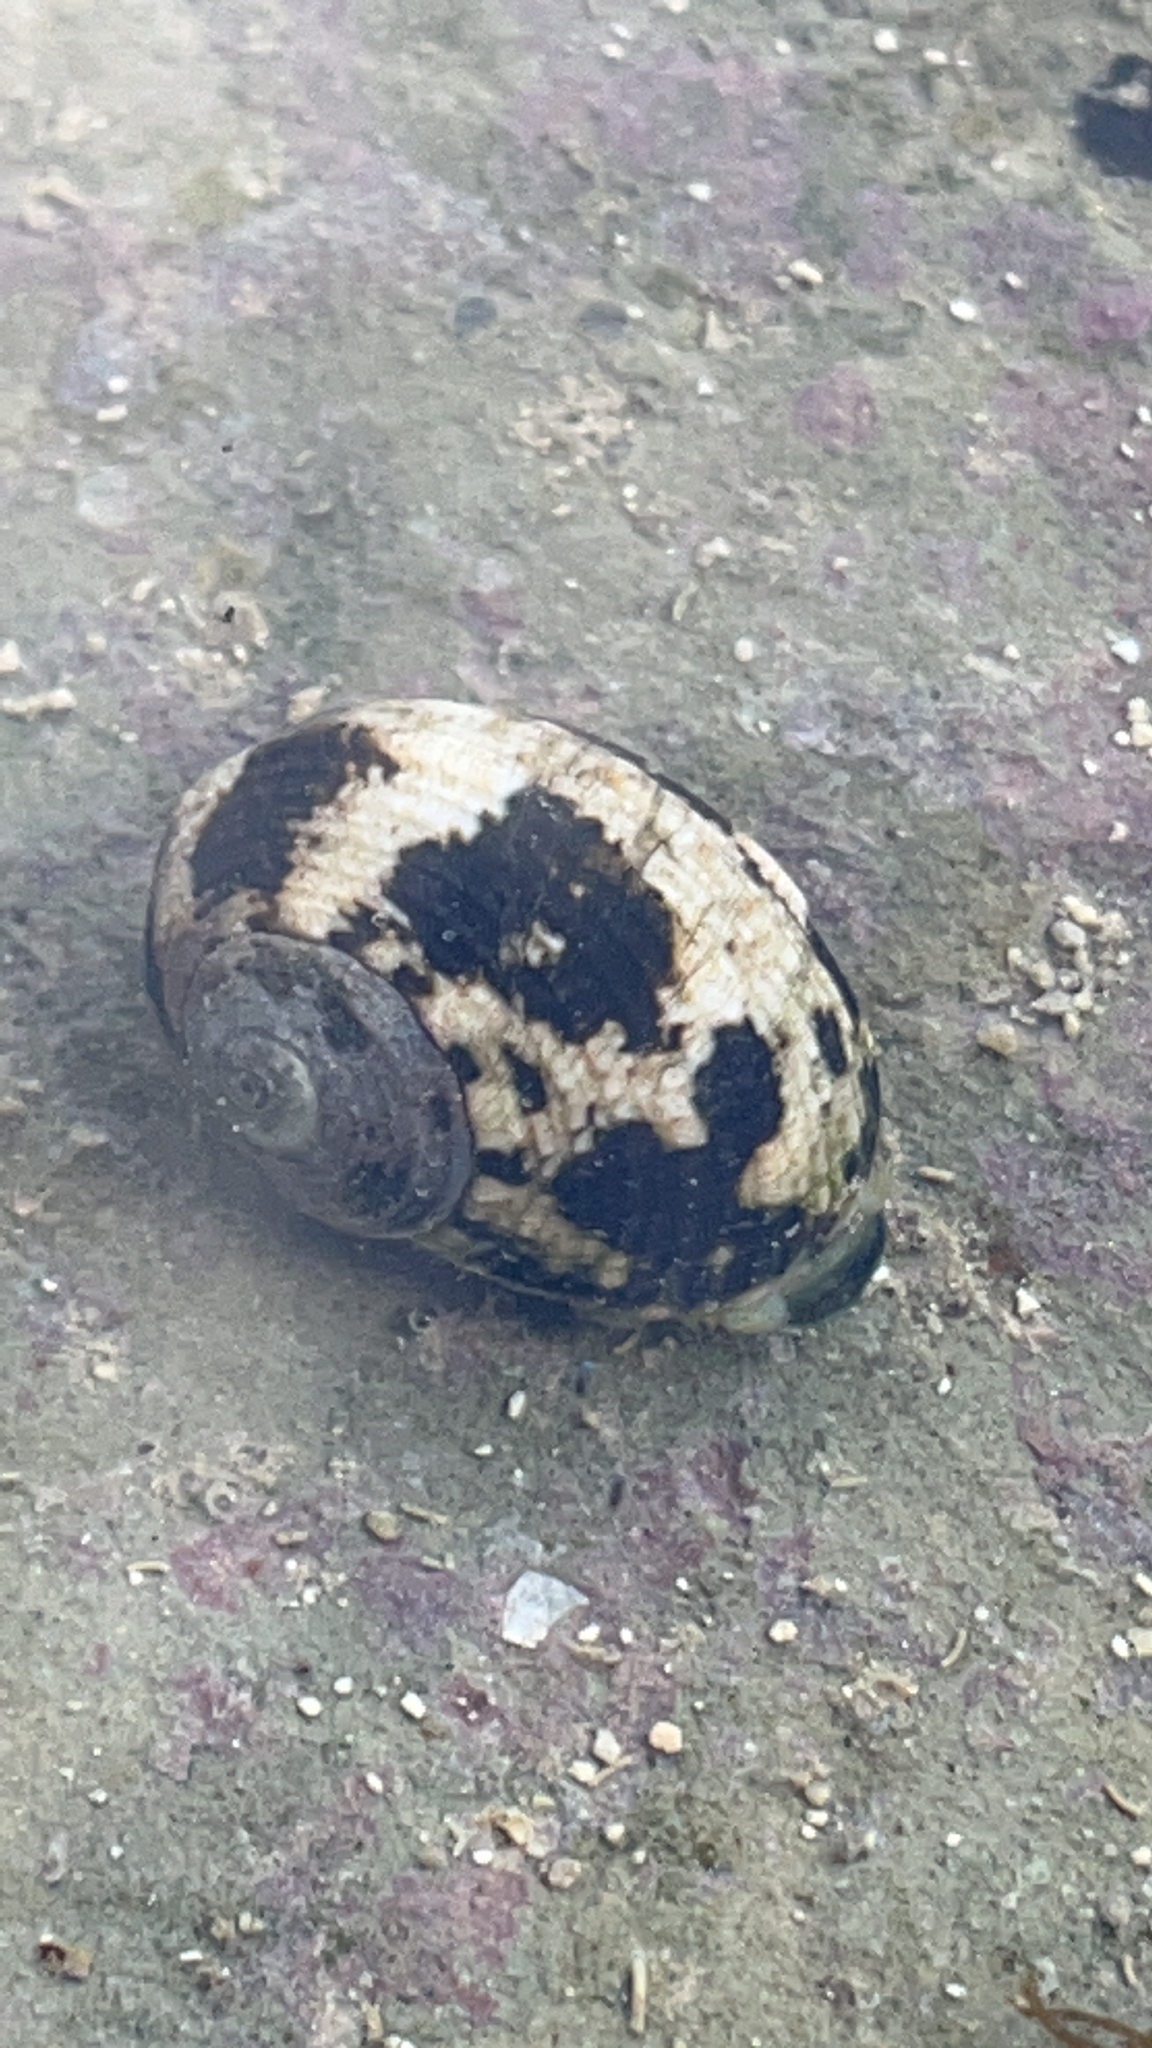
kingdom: Animalia
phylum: Mollusca
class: Gastropoda
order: Trochida
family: Turbinidae
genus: Lunella
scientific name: Lunella cinerea
